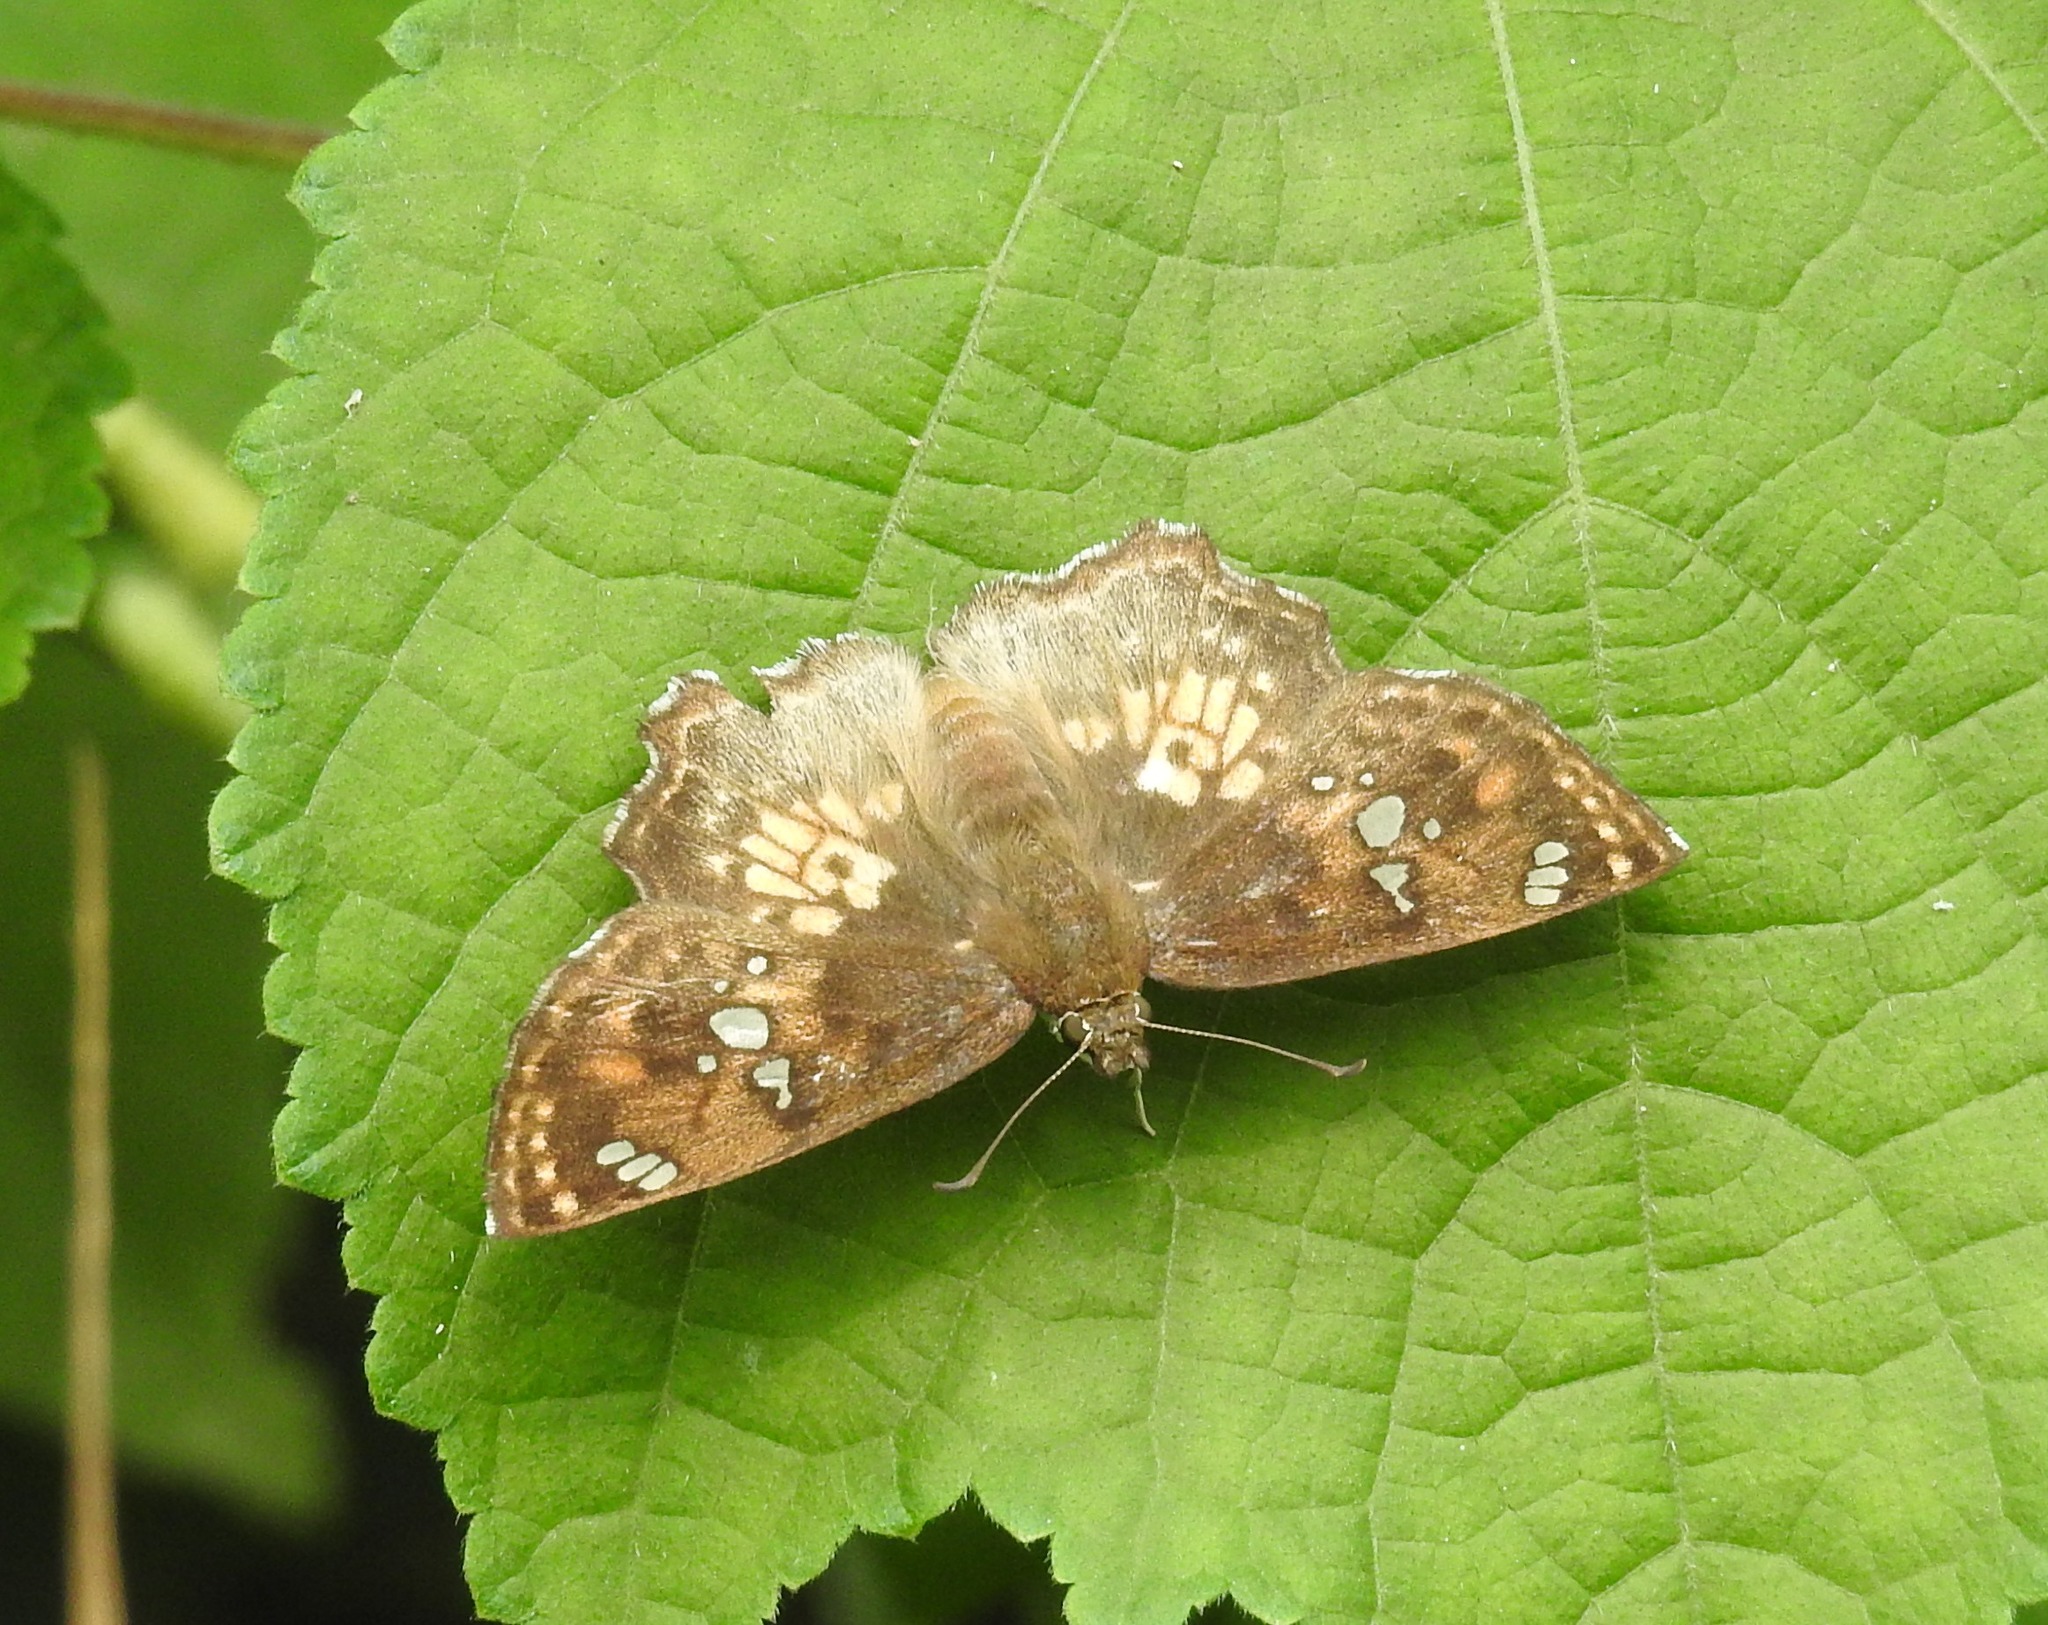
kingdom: Animalia
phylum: Arthropoda
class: Insecta
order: Lepidoptera
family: Hesperiidae
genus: Caprona
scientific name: Caprona ransonnettii
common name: Golden angle
